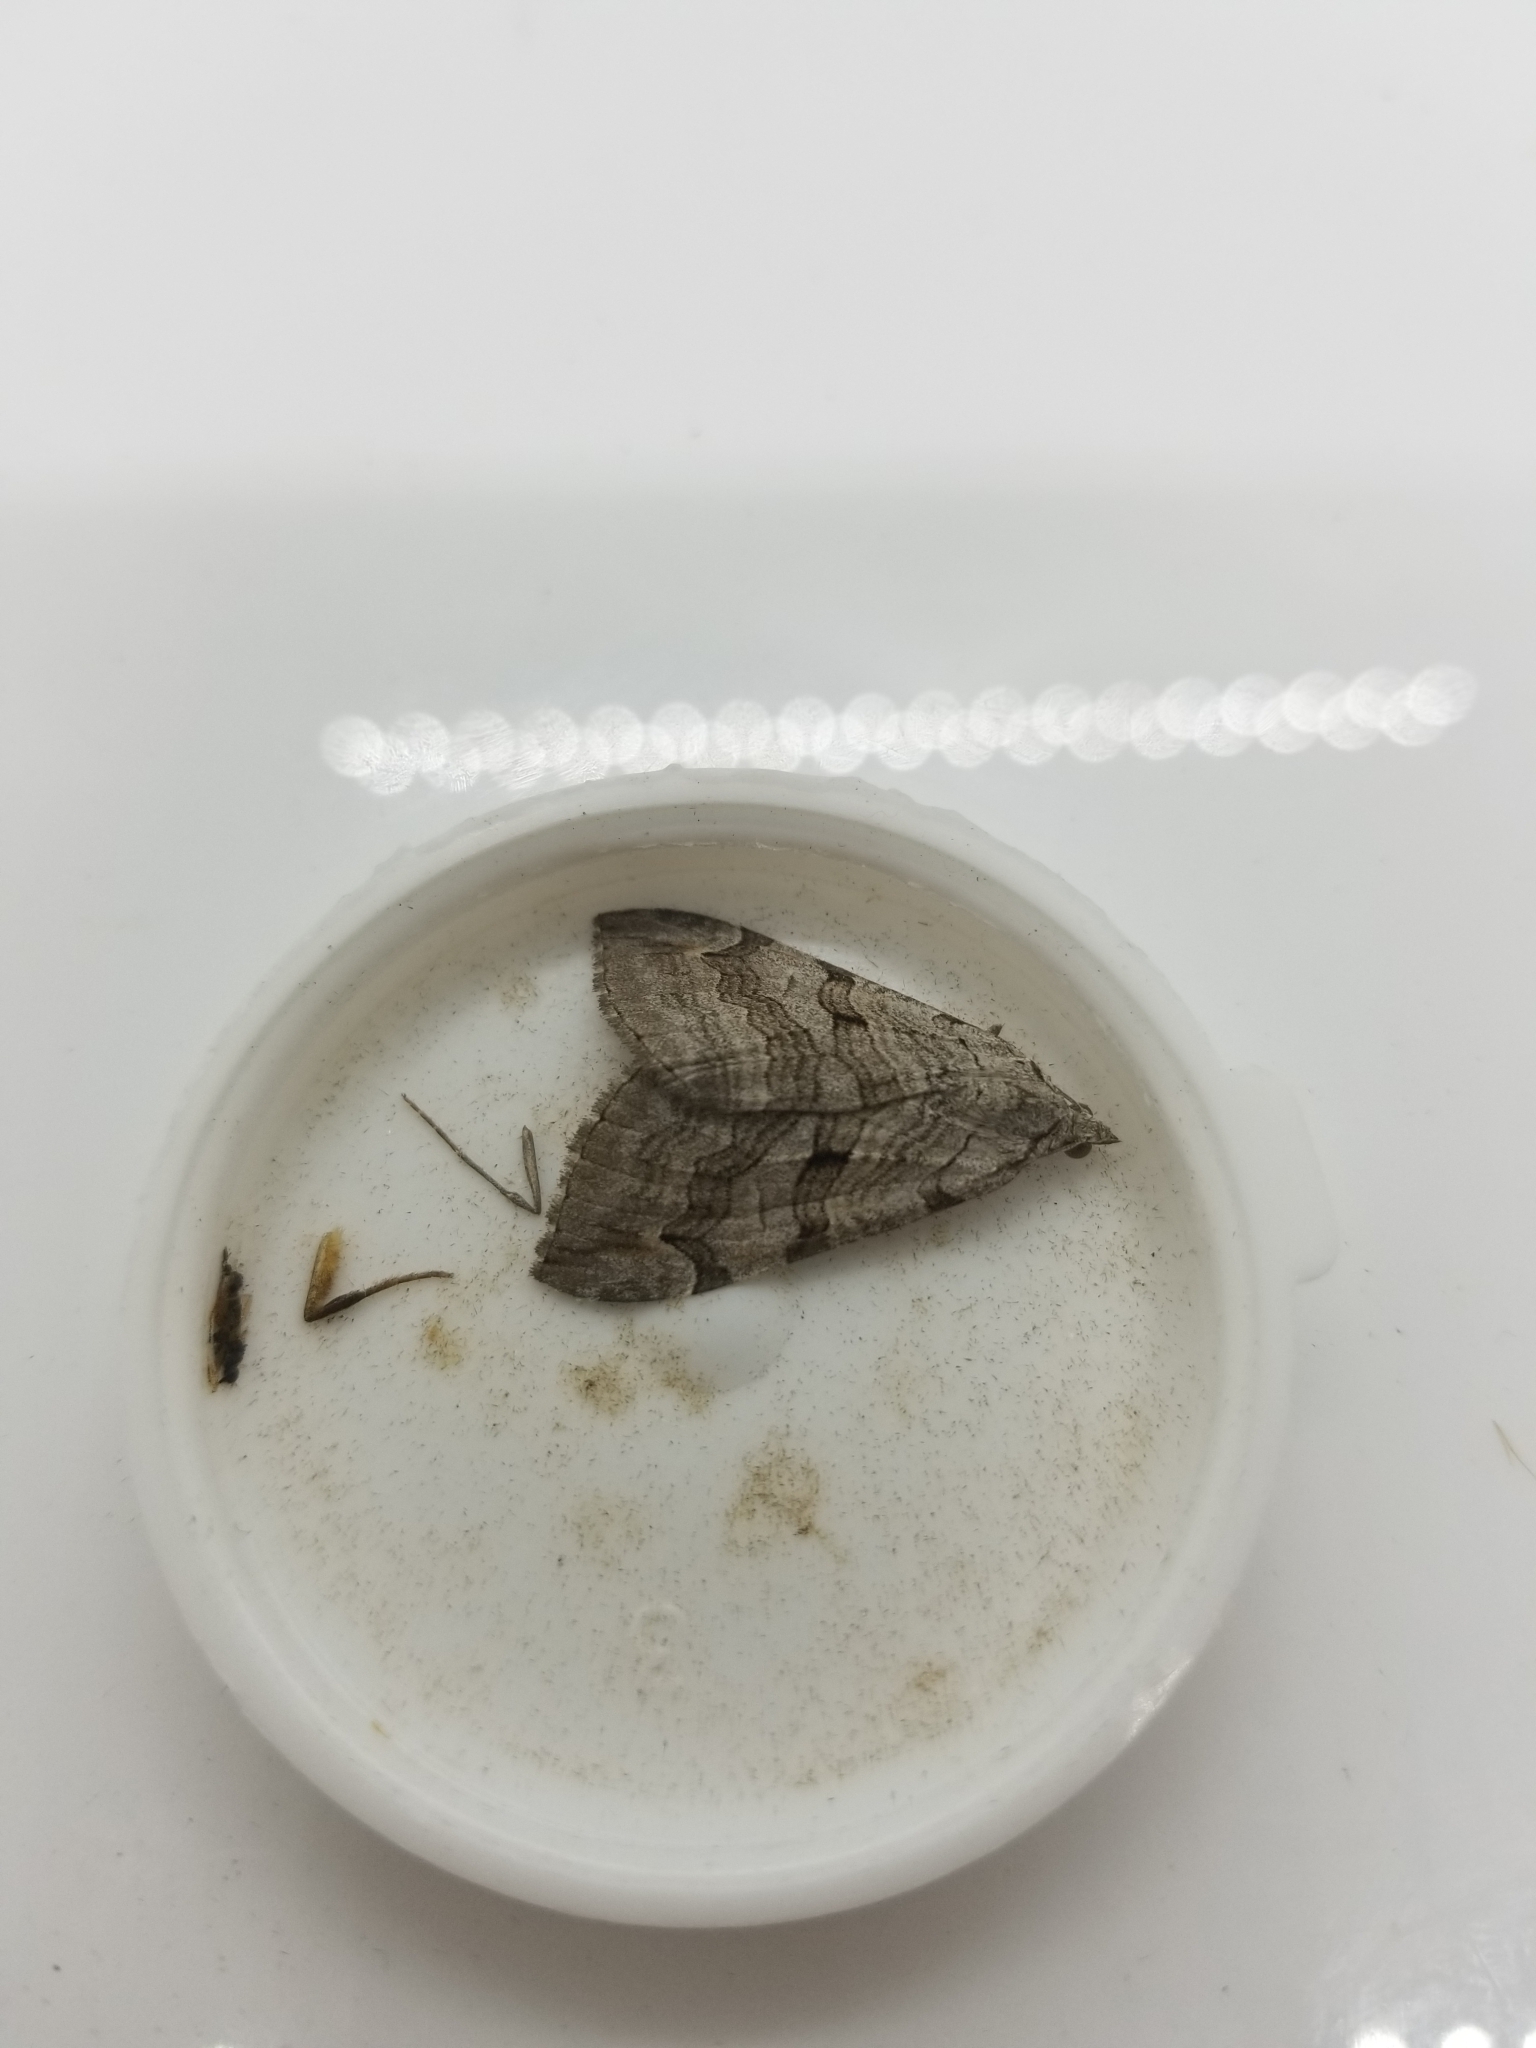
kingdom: Animalia
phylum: Arthropoda
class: Insecta
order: Lepidoptera
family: Geometridae
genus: Aplocera
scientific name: Aplocera plagiata
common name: Treble-bar
